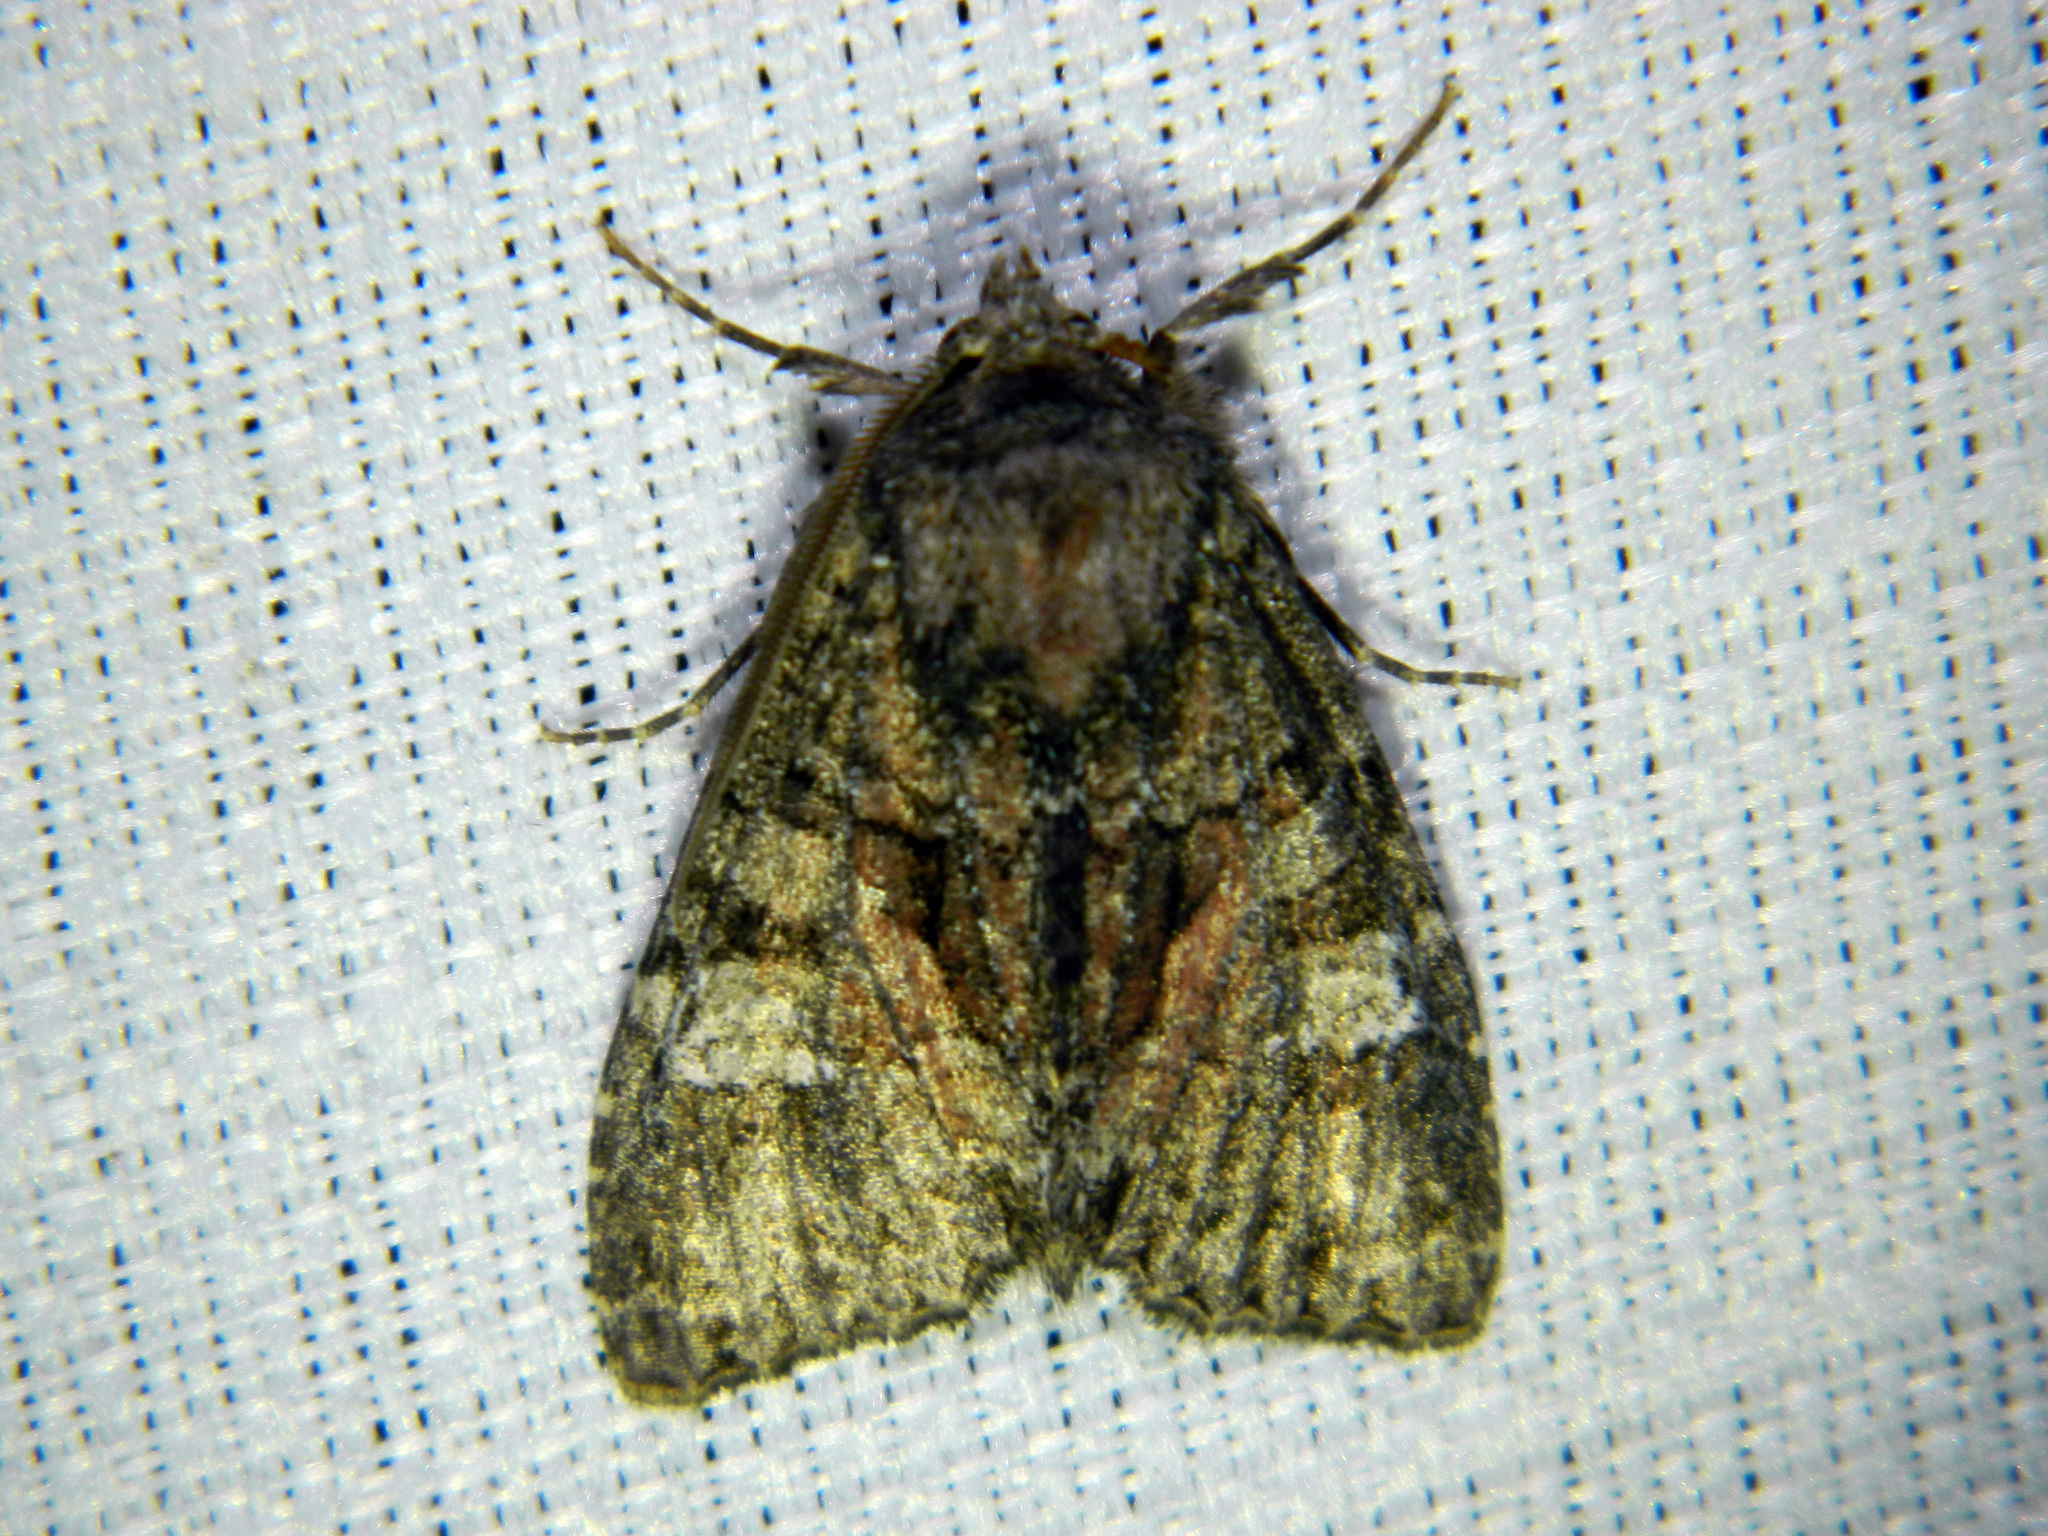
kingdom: Animalia
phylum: Arthropoda
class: Insecta
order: Lepidoptera
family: Noctuidae
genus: Fishia
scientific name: Fishia illocata
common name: Wandering brocade moth
